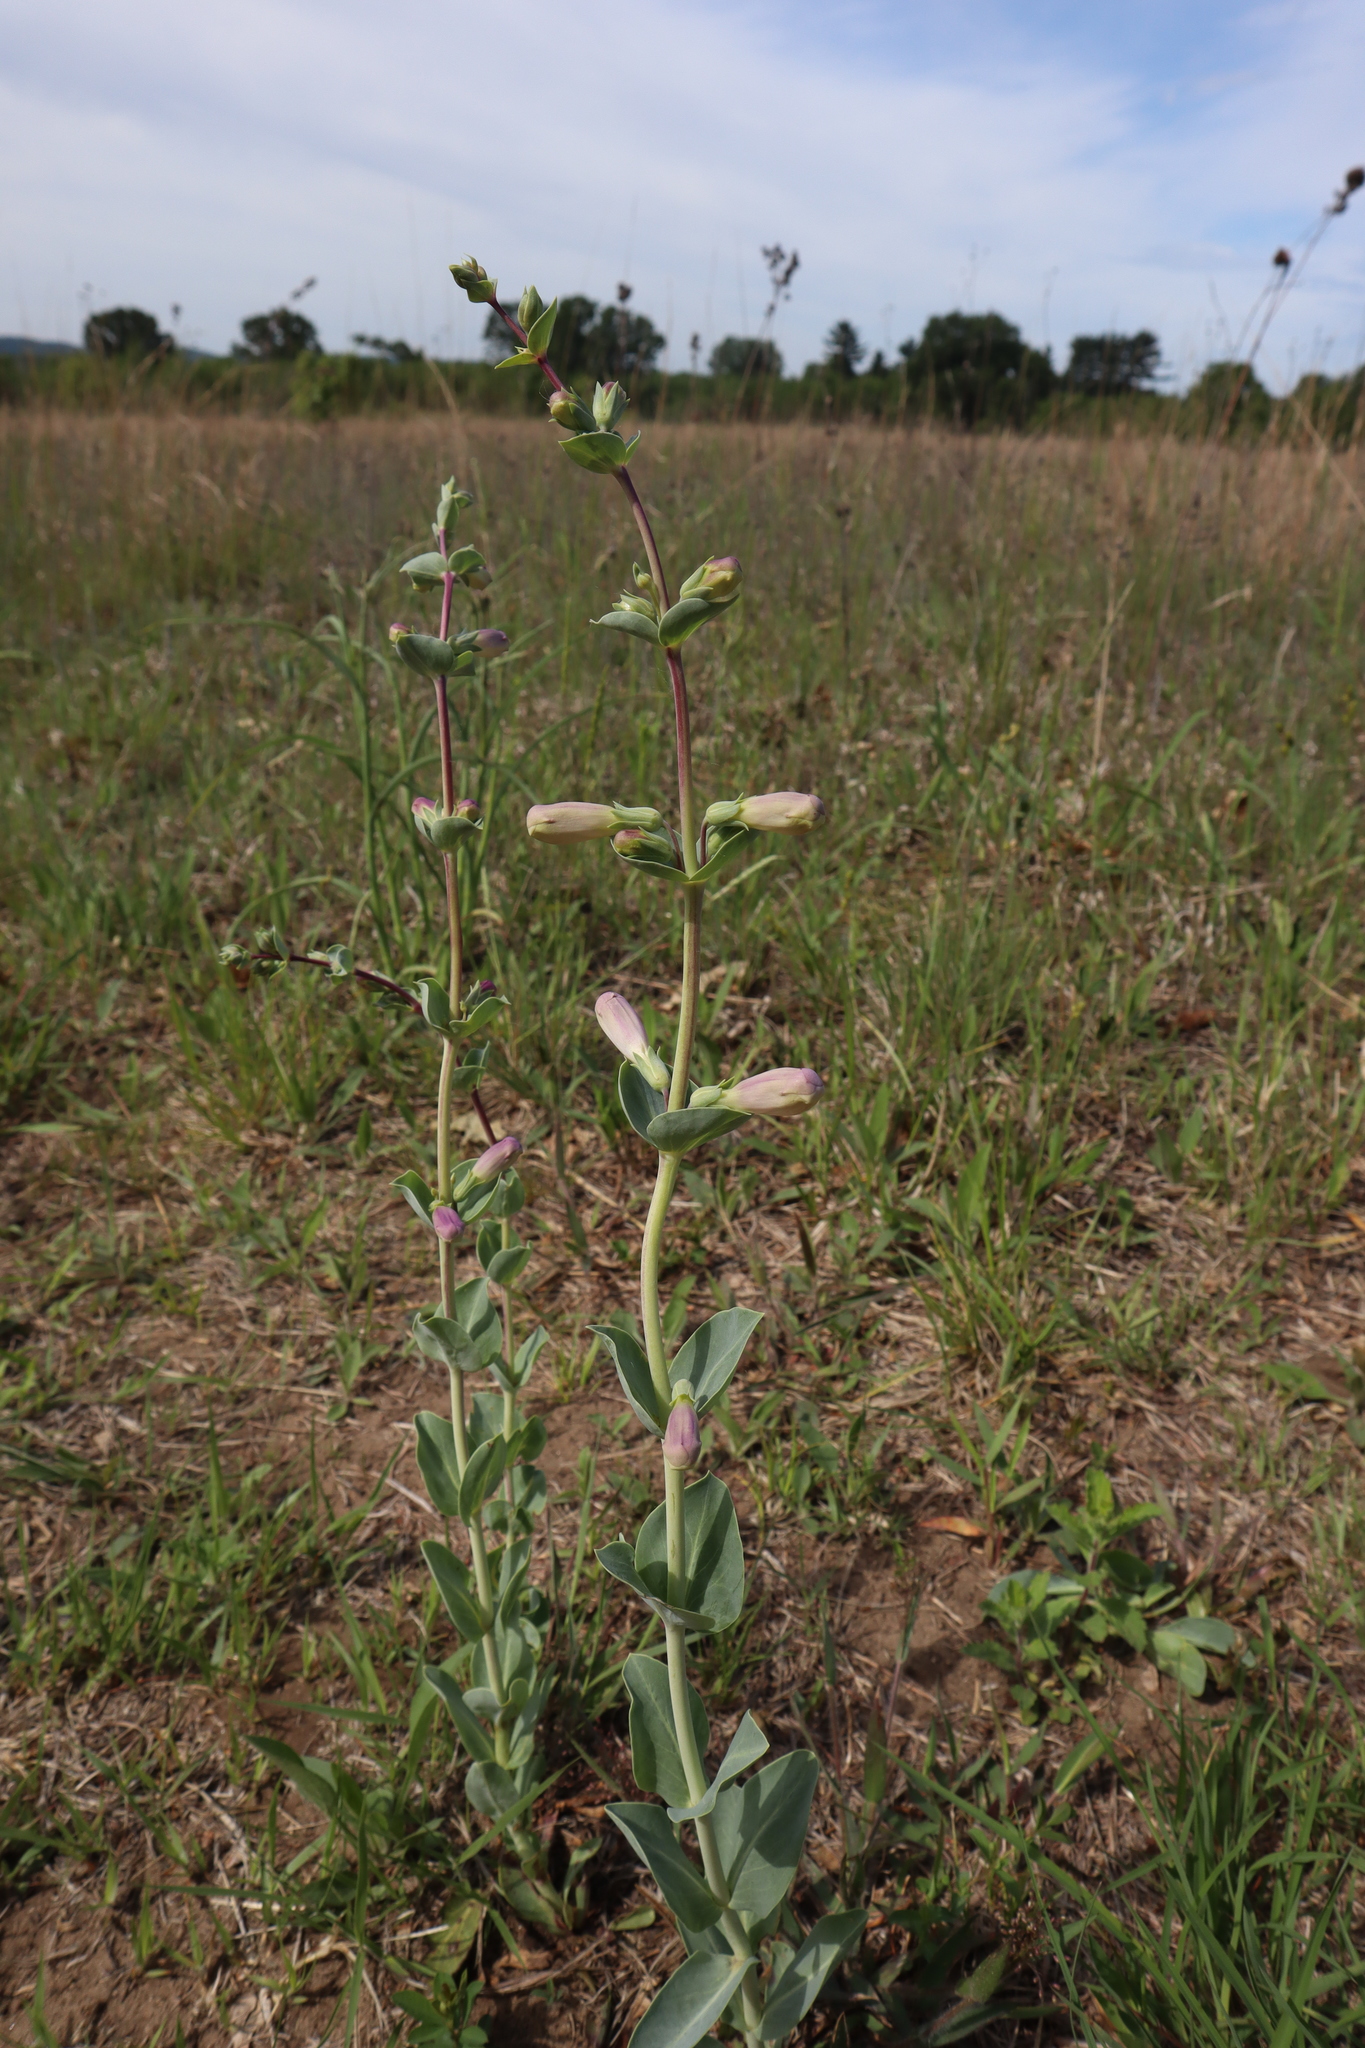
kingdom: Plantae
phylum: Tracheophyta
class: Magnoliopsida
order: Lamiales
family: Plantaginaceae
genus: Penstemon
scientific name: Penstemon
